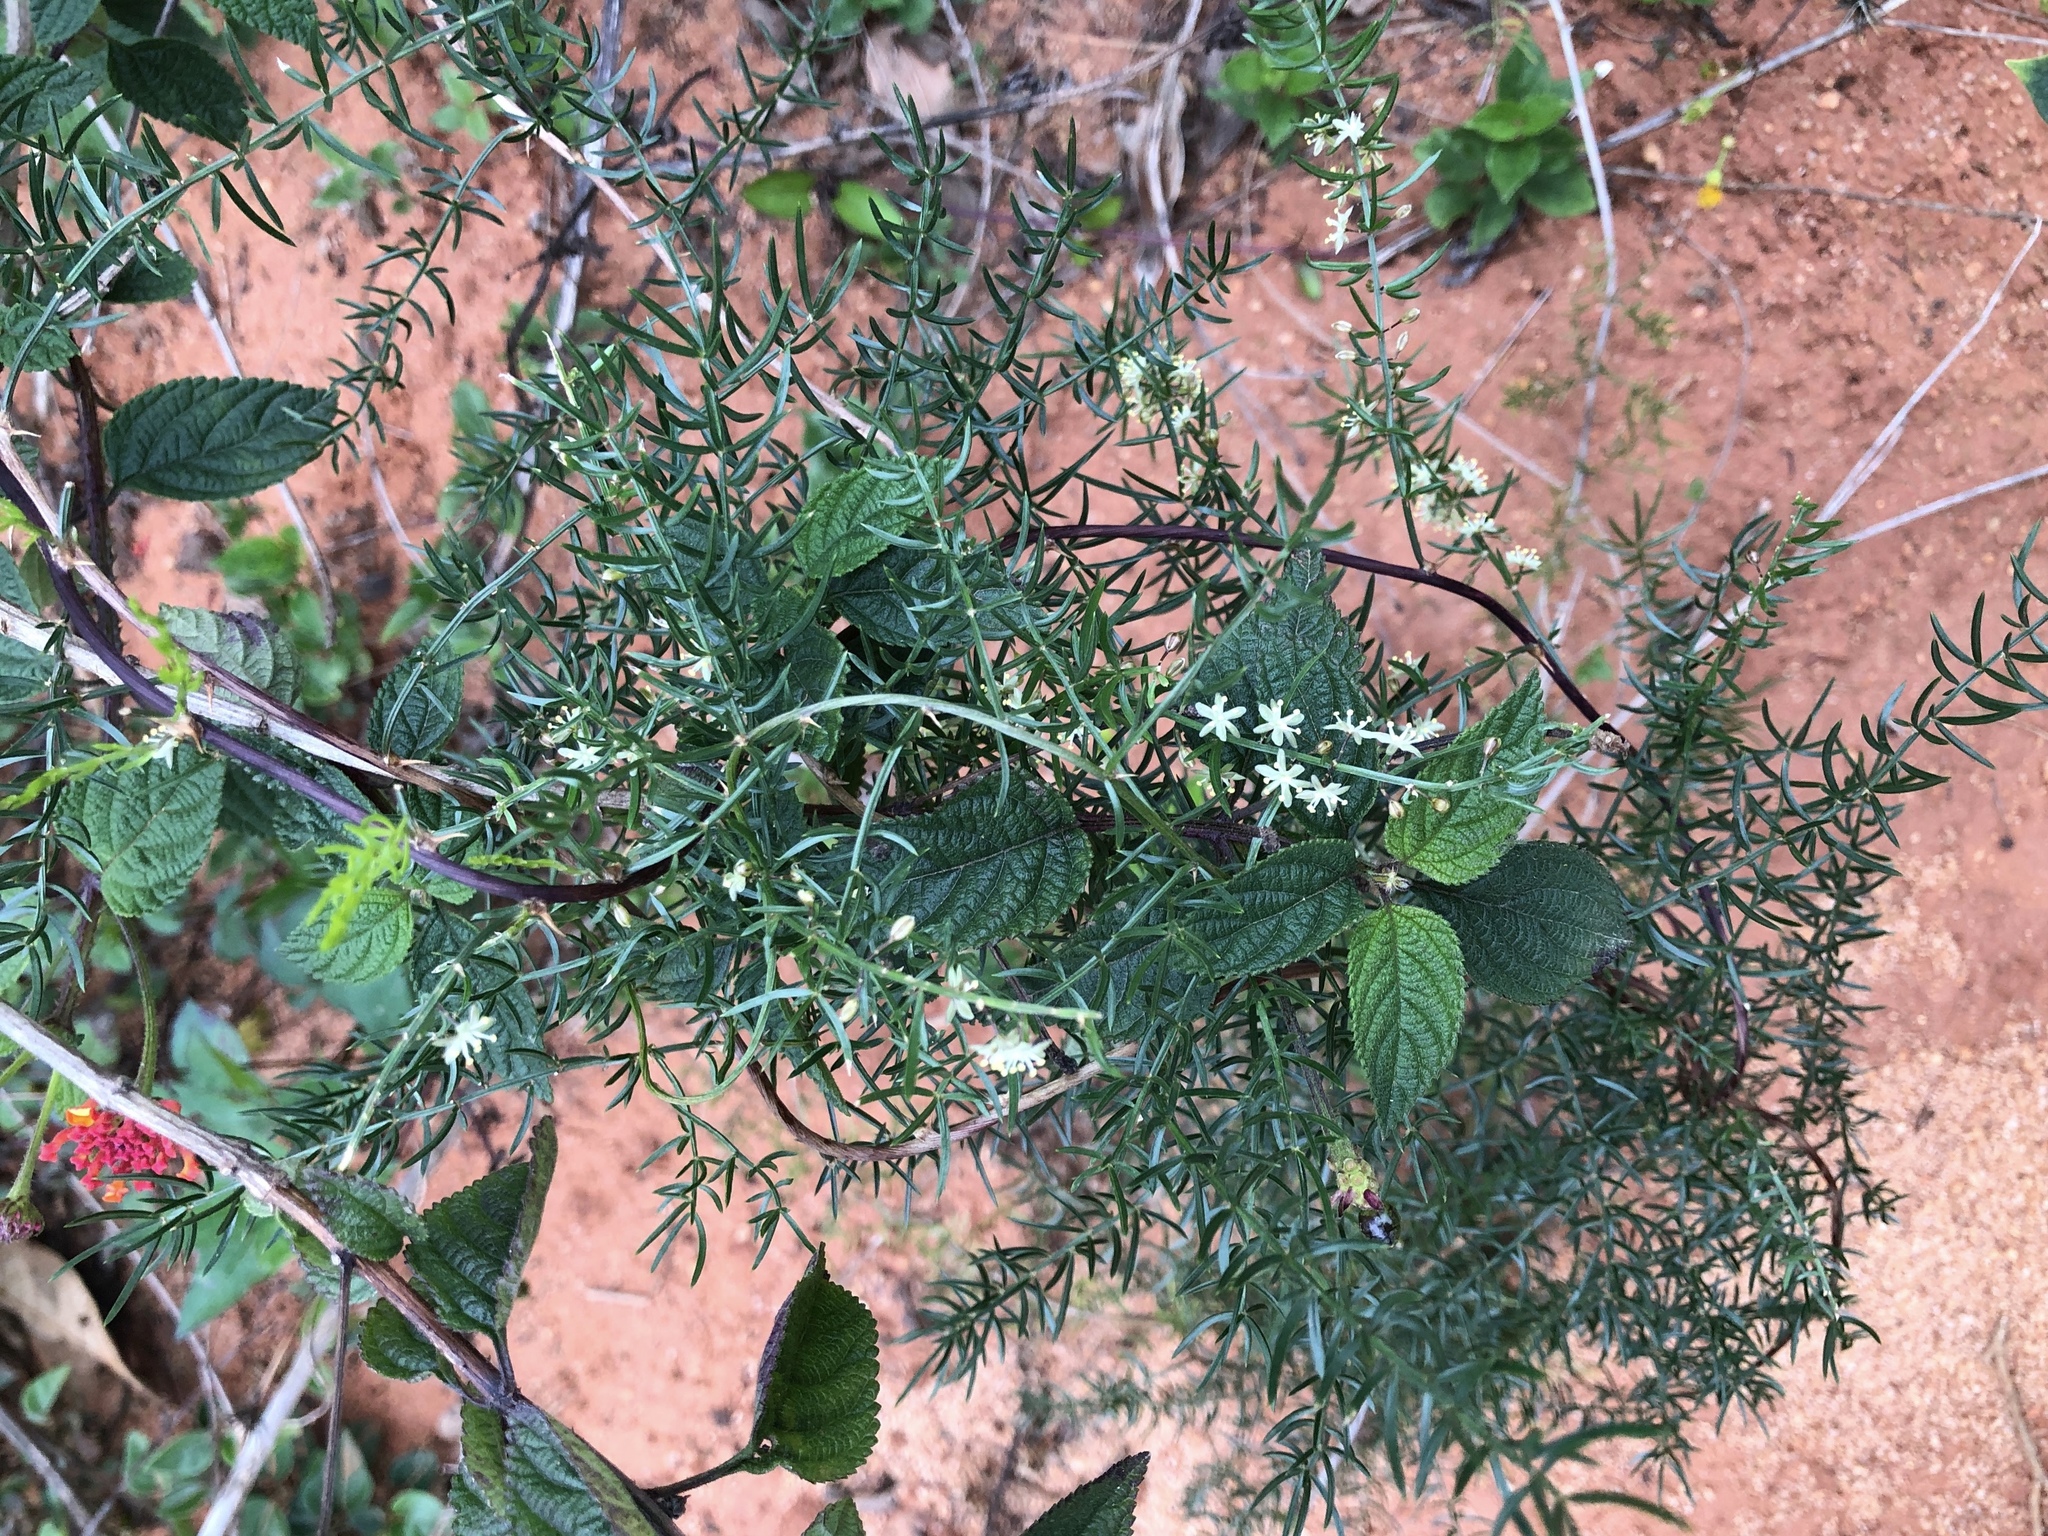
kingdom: Plantae
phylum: Tracheophyta
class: Liliopsida
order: Asparagales
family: Asparagaceae
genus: Asparagus
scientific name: Asparagus cochinchinensis
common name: Chinese asparagus
